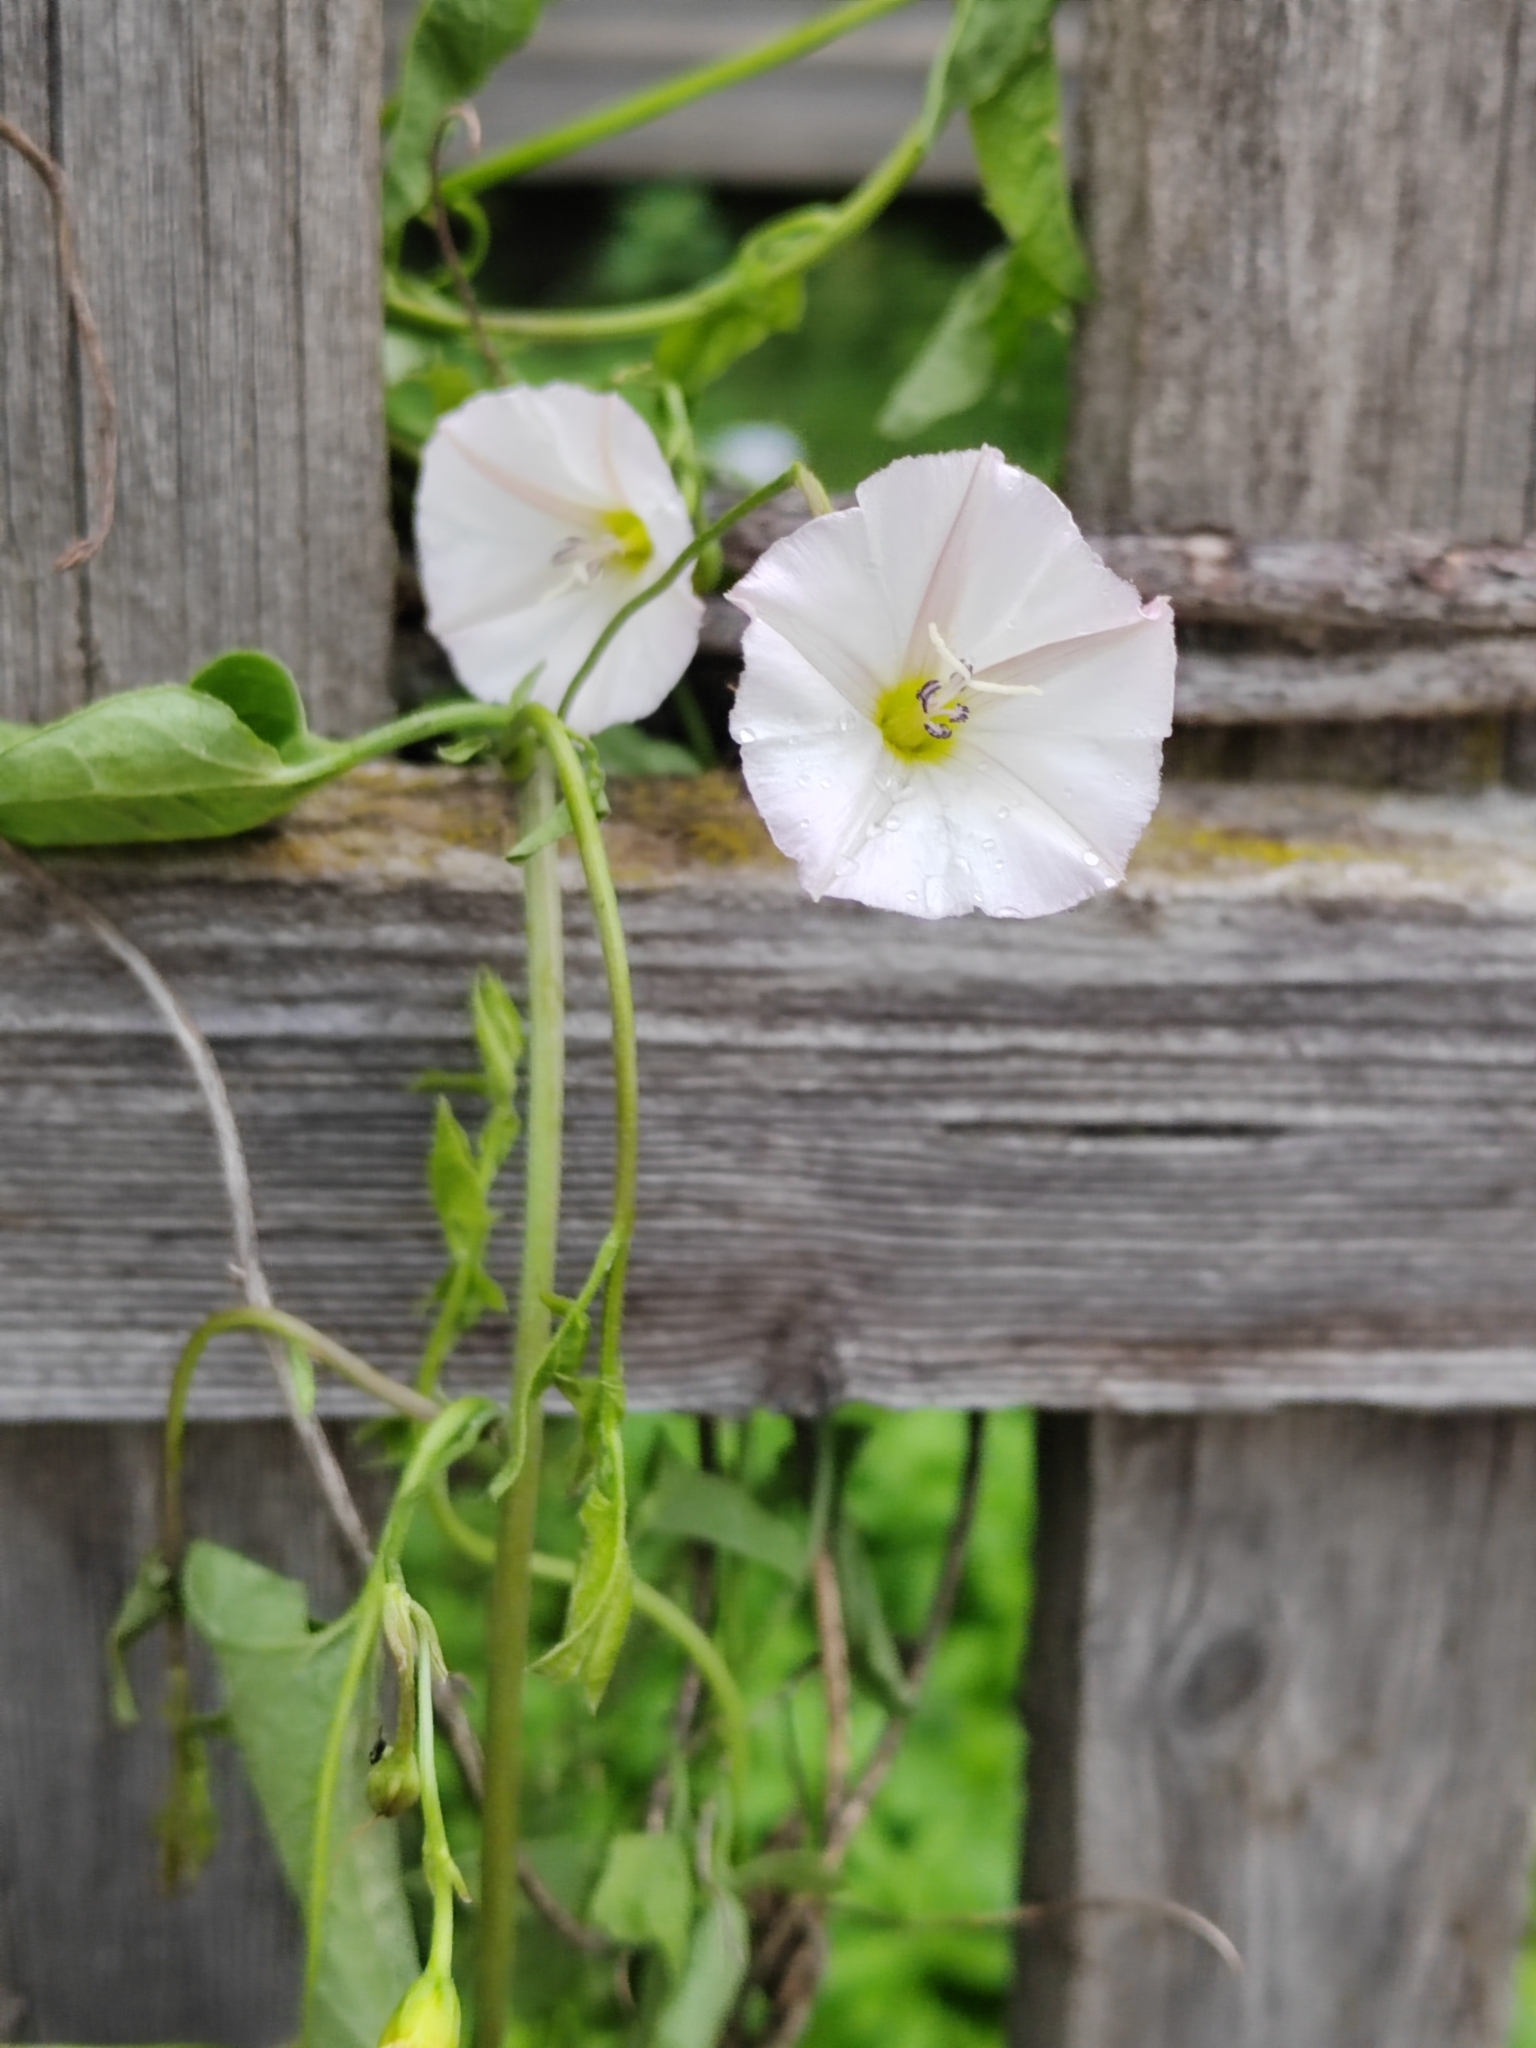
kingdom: Plantae
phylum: Tracheophyta
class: Magnoliopsida
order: Solanales
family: Convolvulaceae
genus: Convolvulus
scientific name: Convolvulus arvensis
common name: Field bindweed
